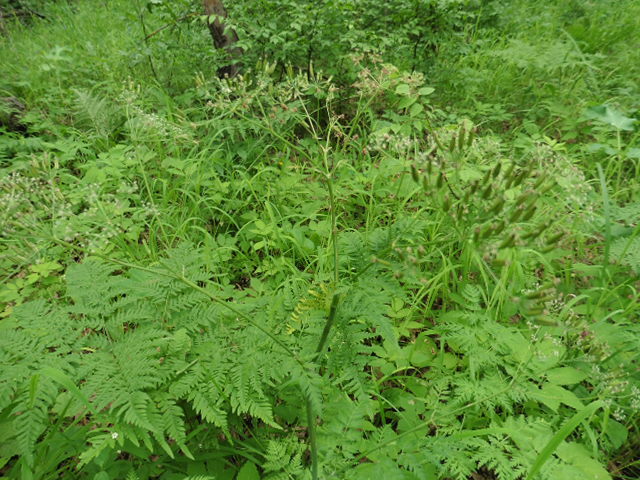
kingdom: Plantae
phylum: Tracheophyta
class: Magnoliopsida
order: Apiales
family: Apiaceae
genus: Anthriscus
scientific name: Anthriscus sylvestris
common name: Cow parsley
